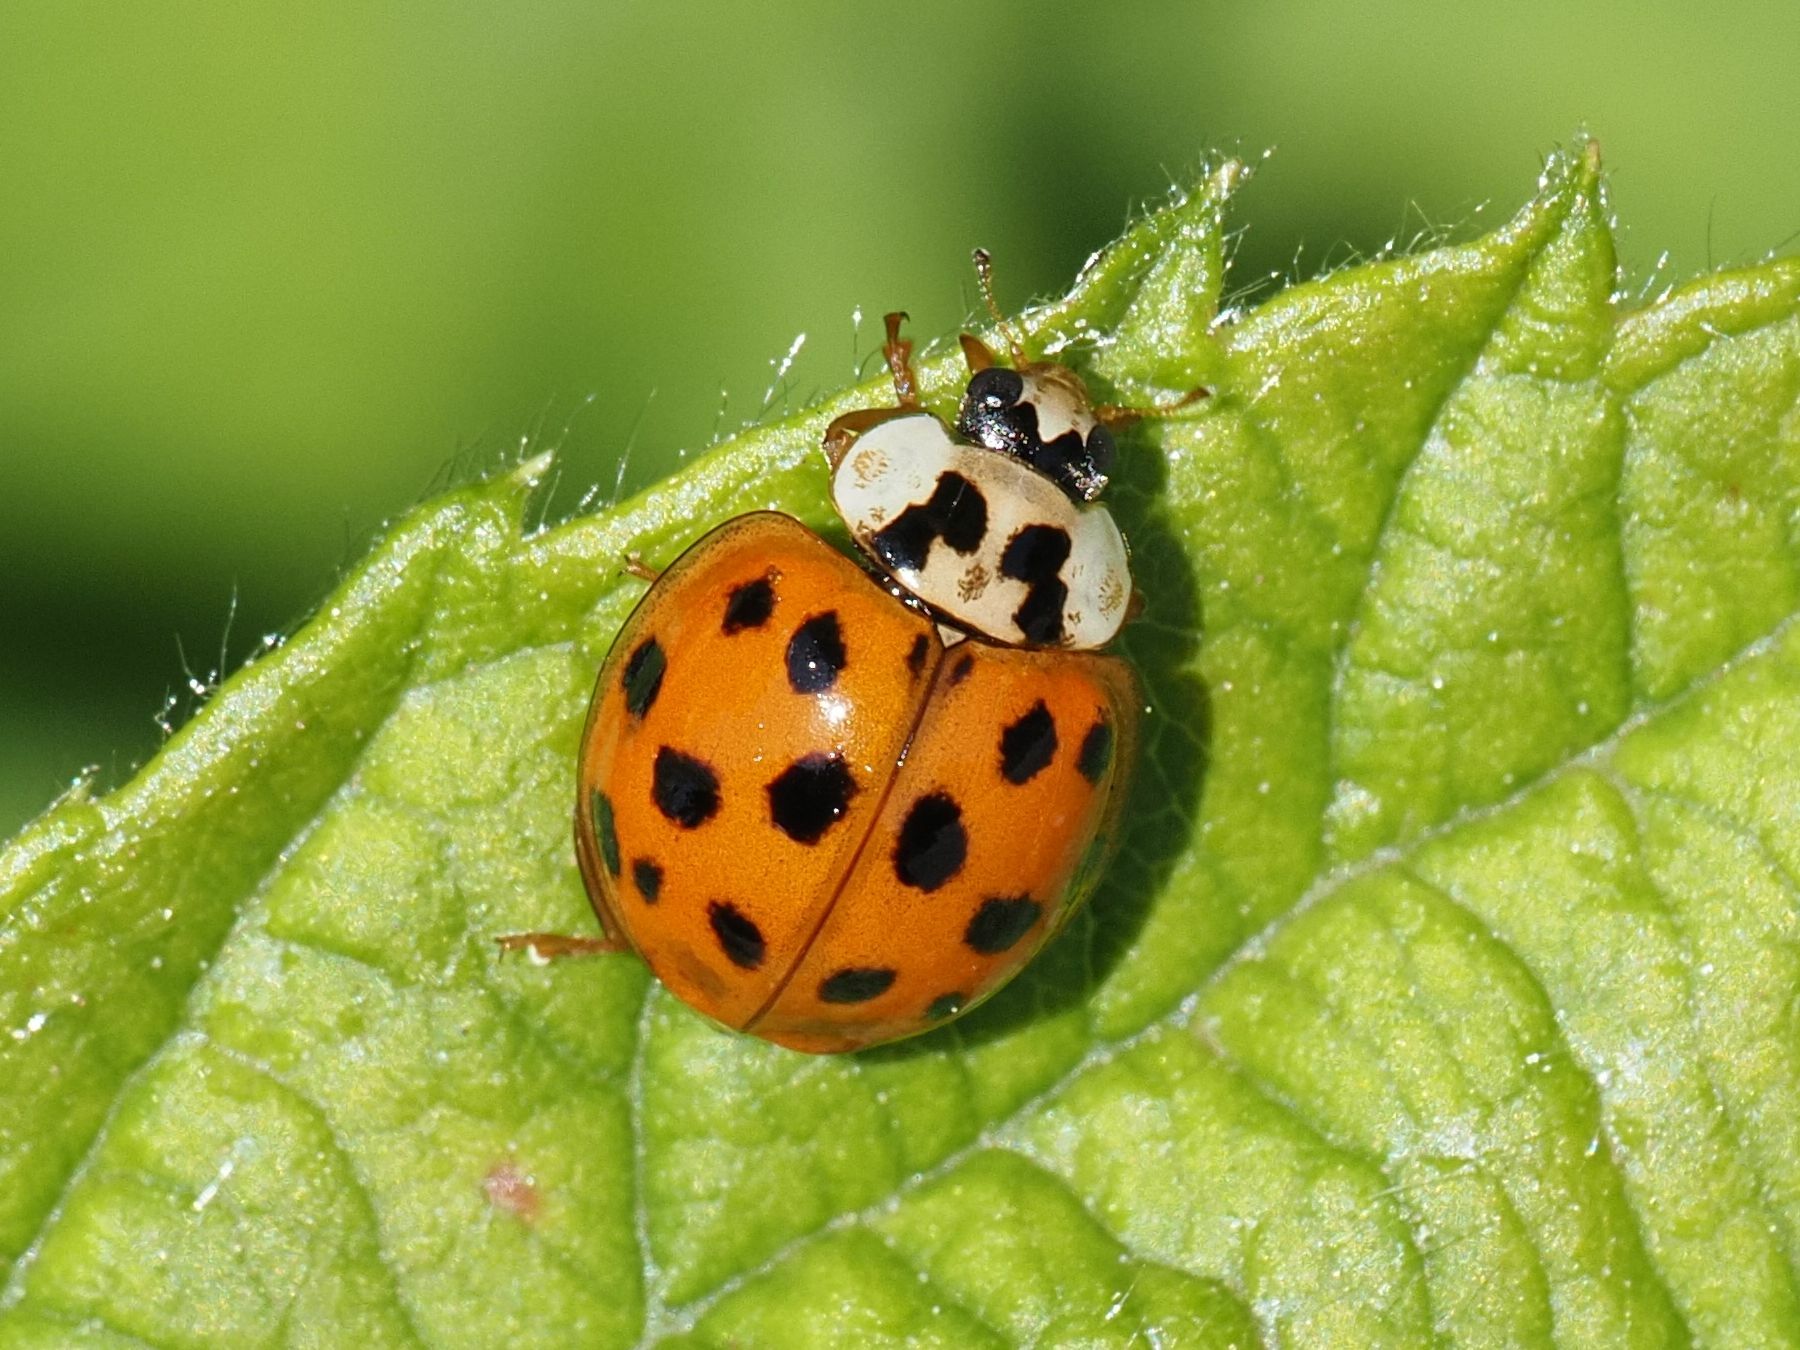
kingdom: Animalia
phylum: Arthropoda
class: Insecta
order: Coleoptera
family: Coccinellidae
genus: Harmonia
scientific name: Harmonia axyridis
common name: Harlequin ladybird
